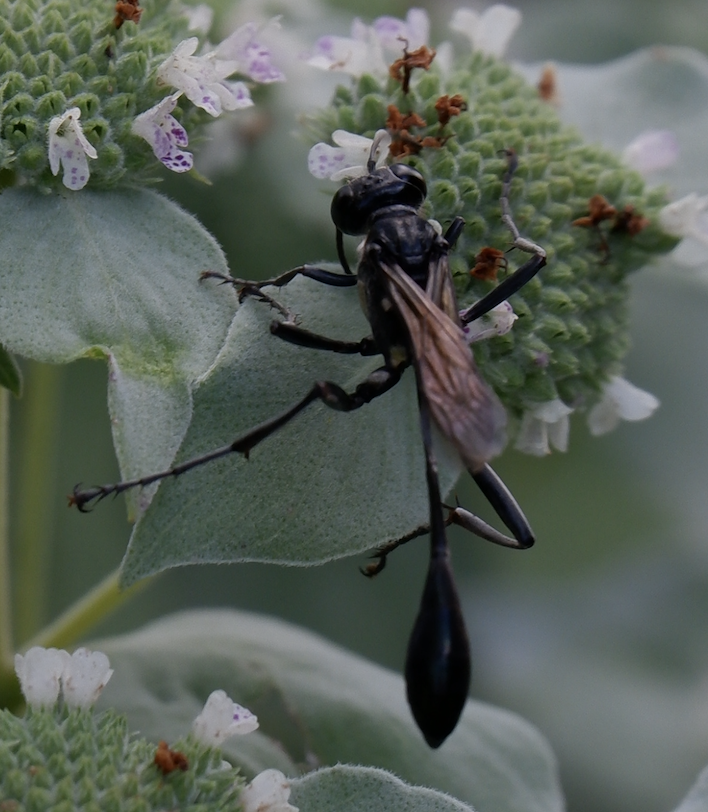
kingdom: Animalia
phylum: Arthropoda
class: Insecta
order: Hymenoptera
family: Sphecidae
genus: Eremnophila
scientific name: Eremnophila aureonotata
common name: Gold-marked thread-waisted wasp
